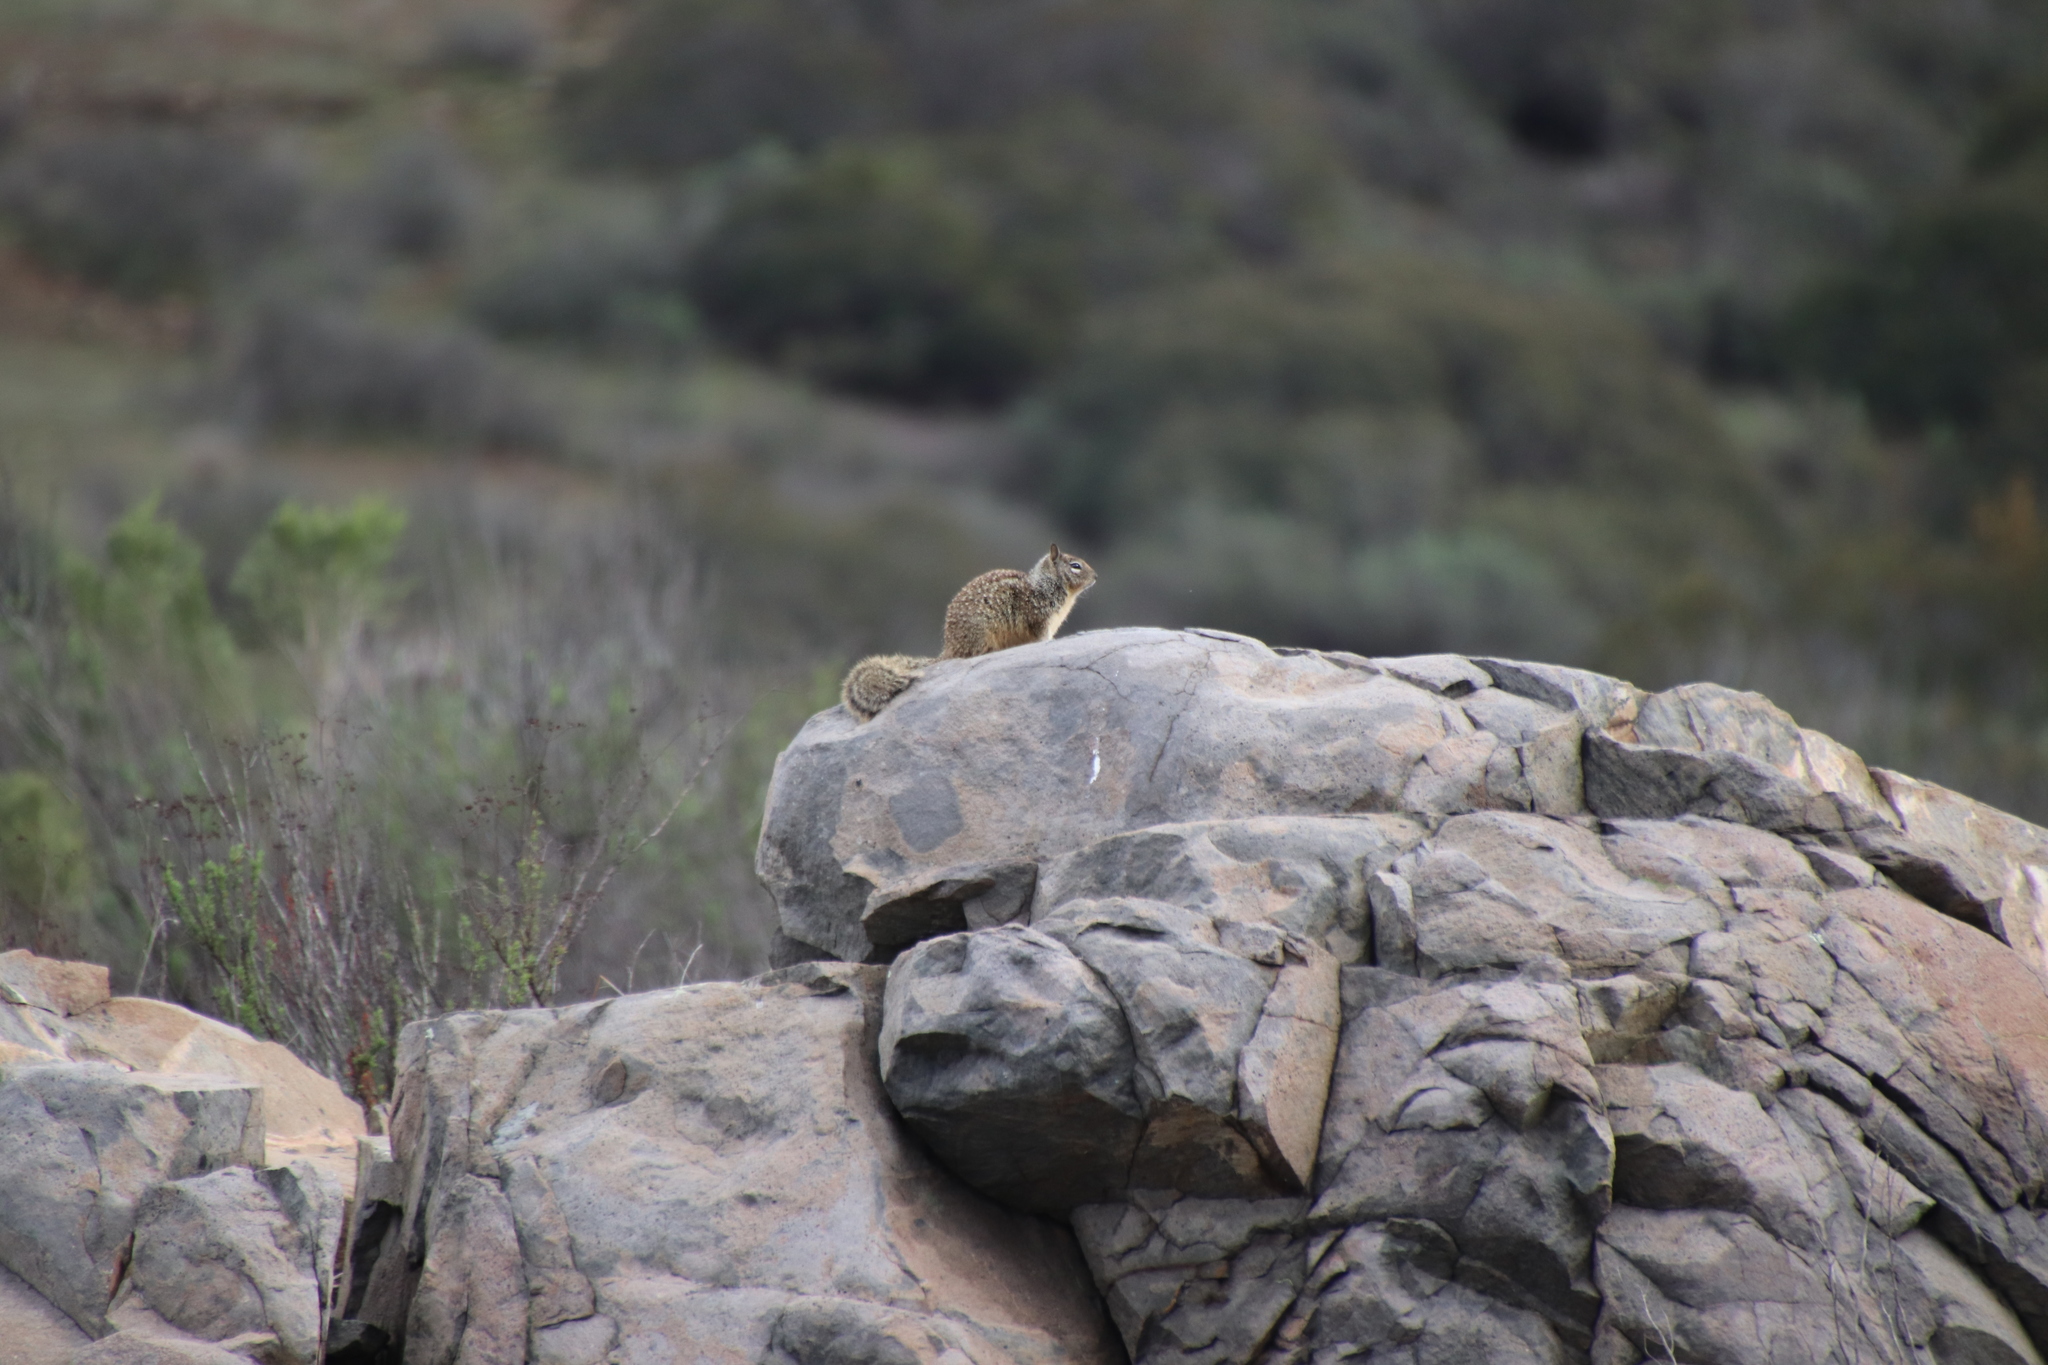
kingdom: Animalia
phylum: Chordata
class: Mammalia
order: Rodentia
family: Sciuridae
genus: Otospermophilus
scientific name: Otospermophilus beecheyi
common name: California ground squirrel
